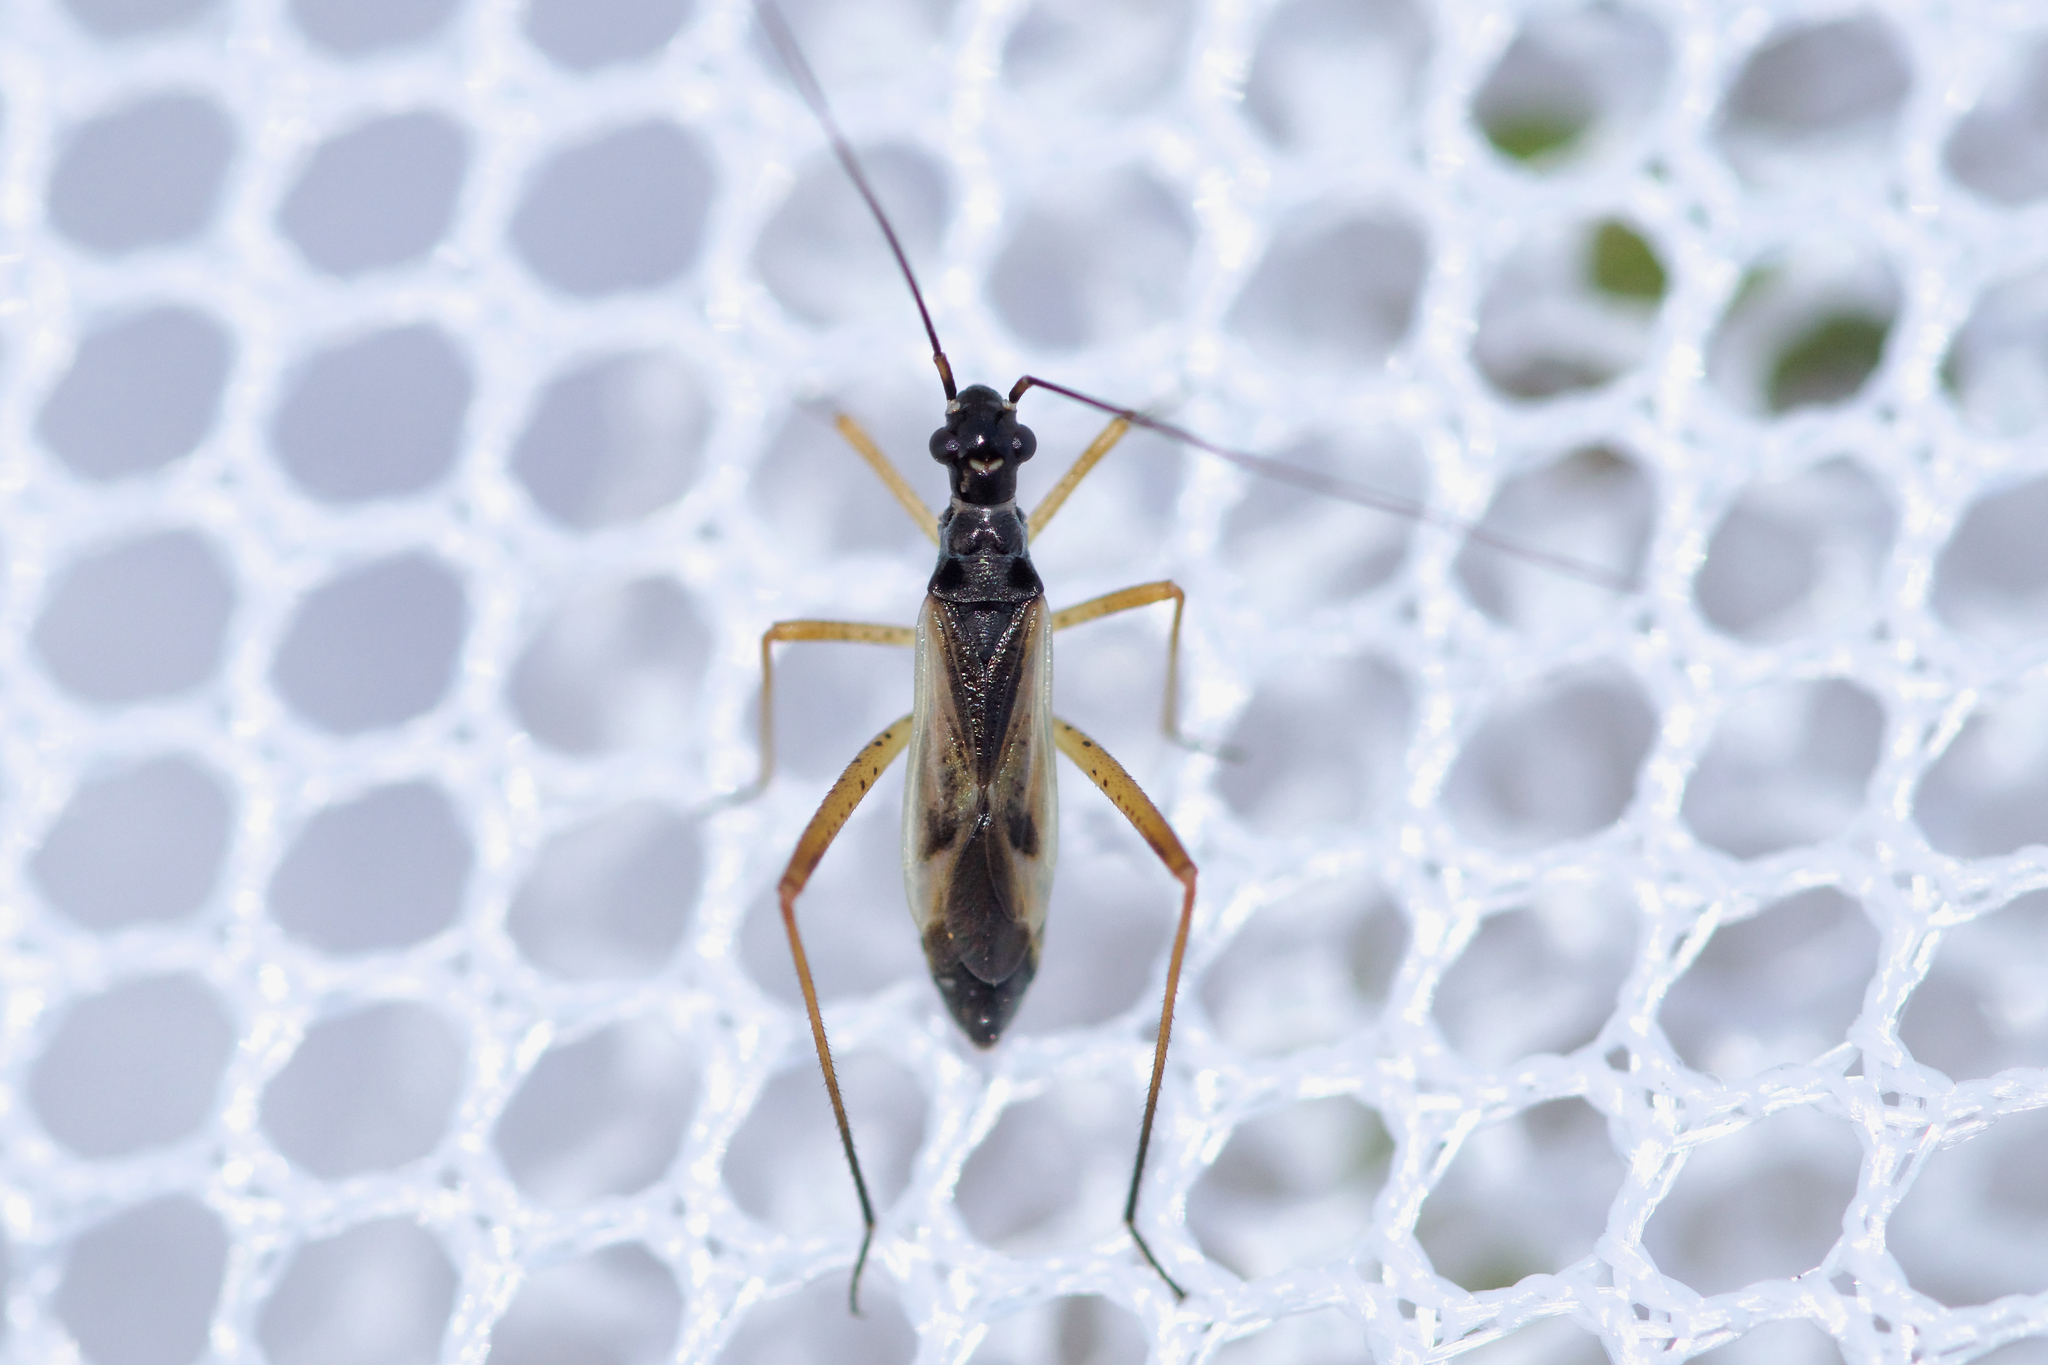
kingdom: Animalia
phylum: Arthropoda
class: Insecta
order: Hemiptera
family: Miridae
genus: Collaria
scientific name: Collaria meilleurii
